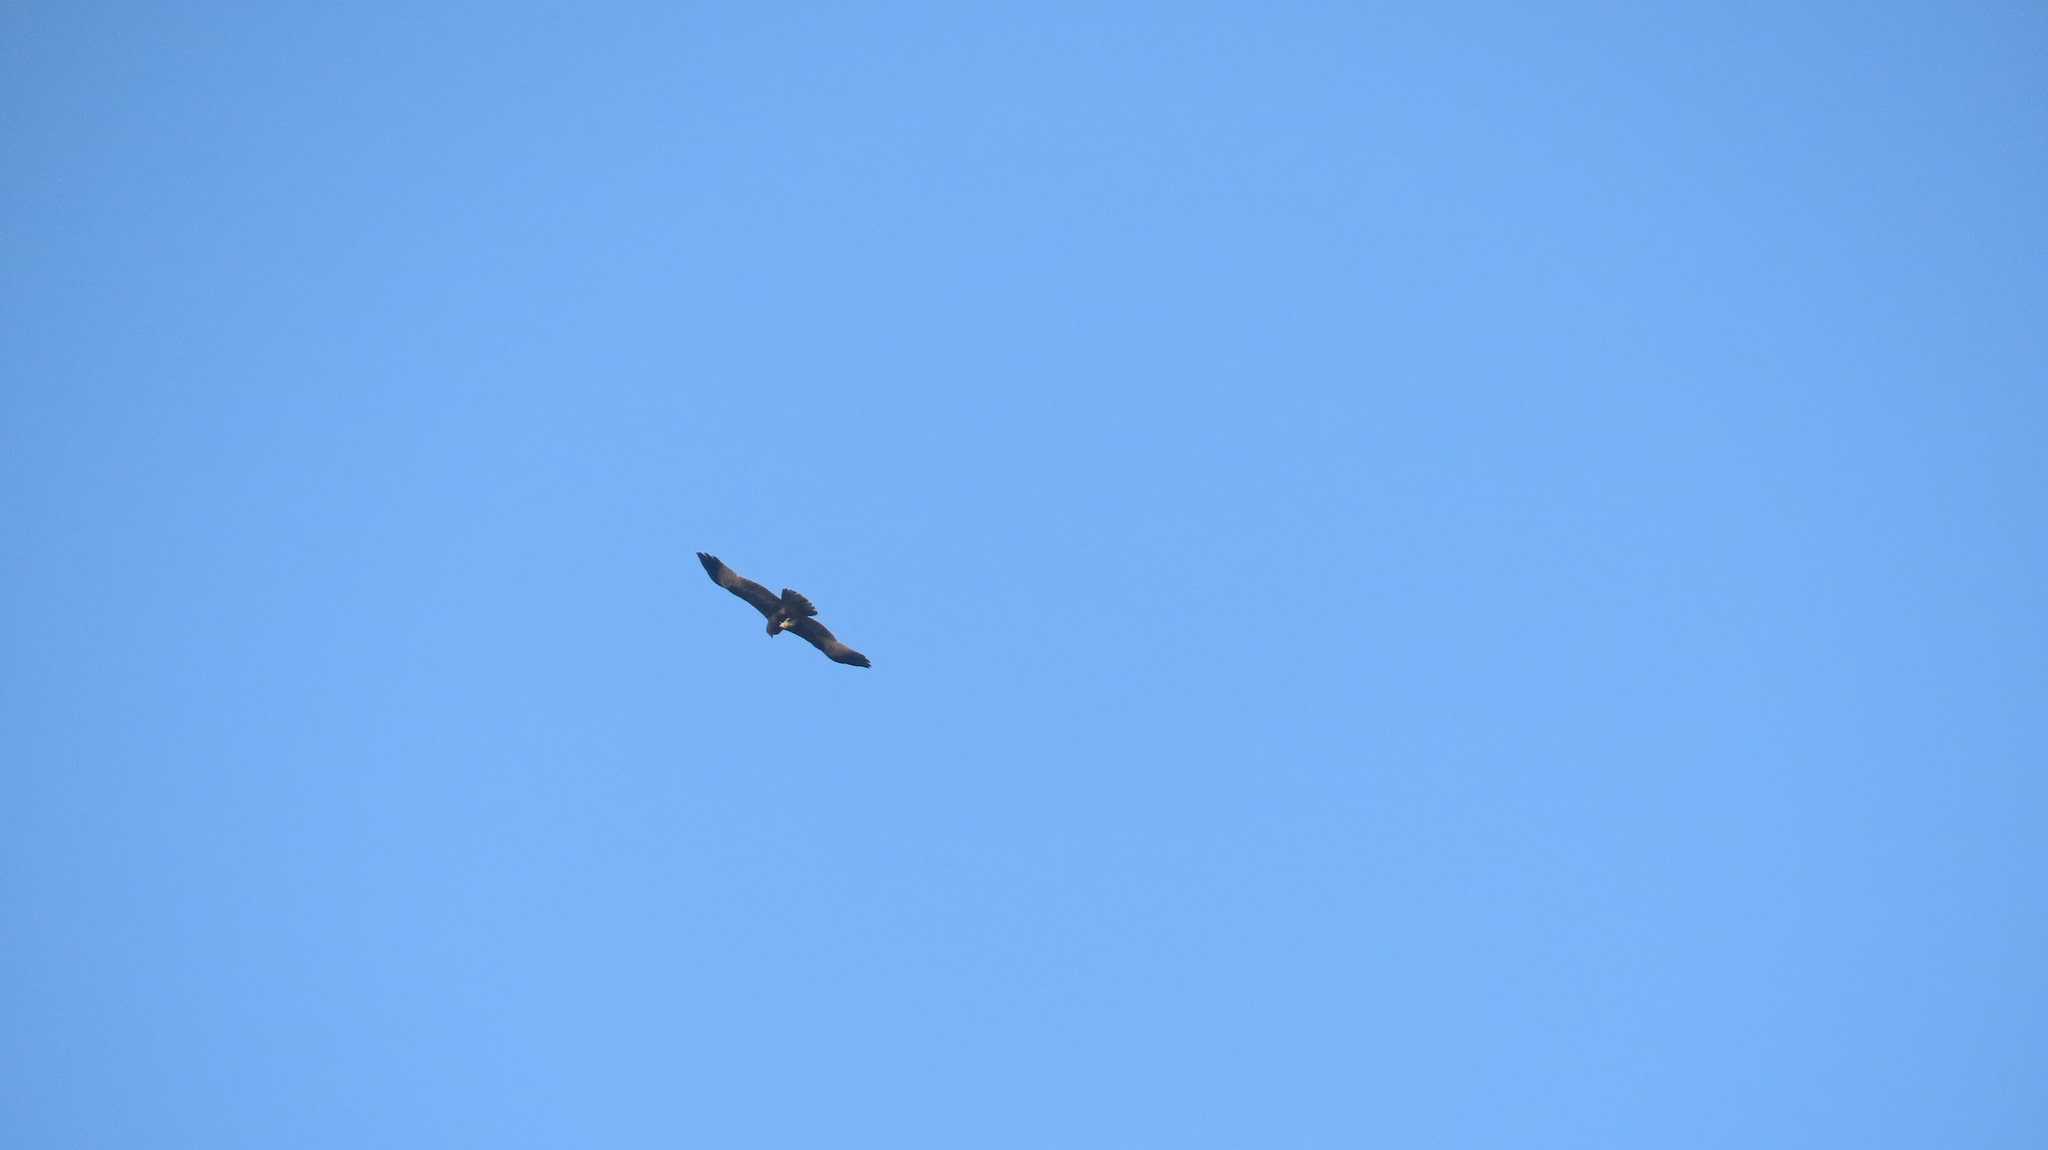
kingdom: Animalia
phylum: Chordata
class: Aves
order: Accipitriformes
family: Accipitridae
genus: Haliastur
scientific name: Haliastur indus
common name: Brahminy kite
